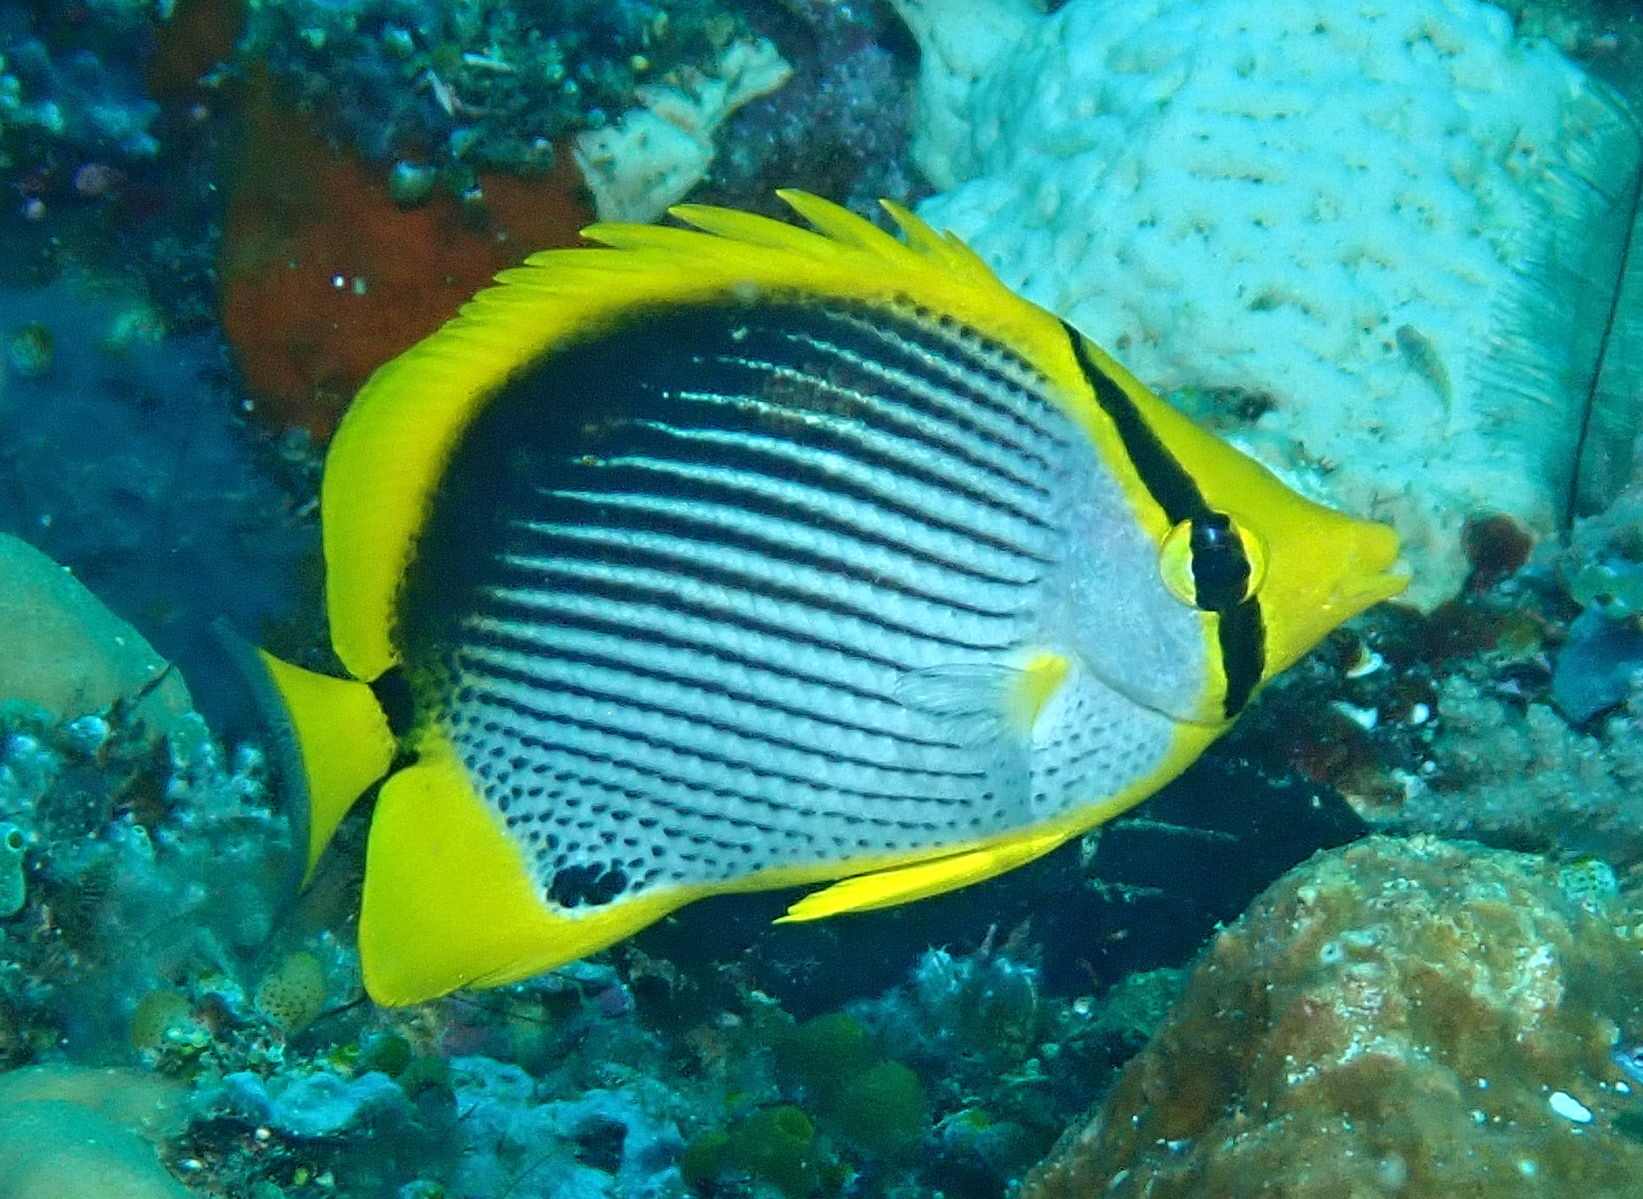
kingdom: Animalia
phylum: Chordata
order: Perciformes
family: Chaetodontidae
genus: Chaetodon
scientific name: Chaetodon melannotus
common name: Blackback butterflyfish
